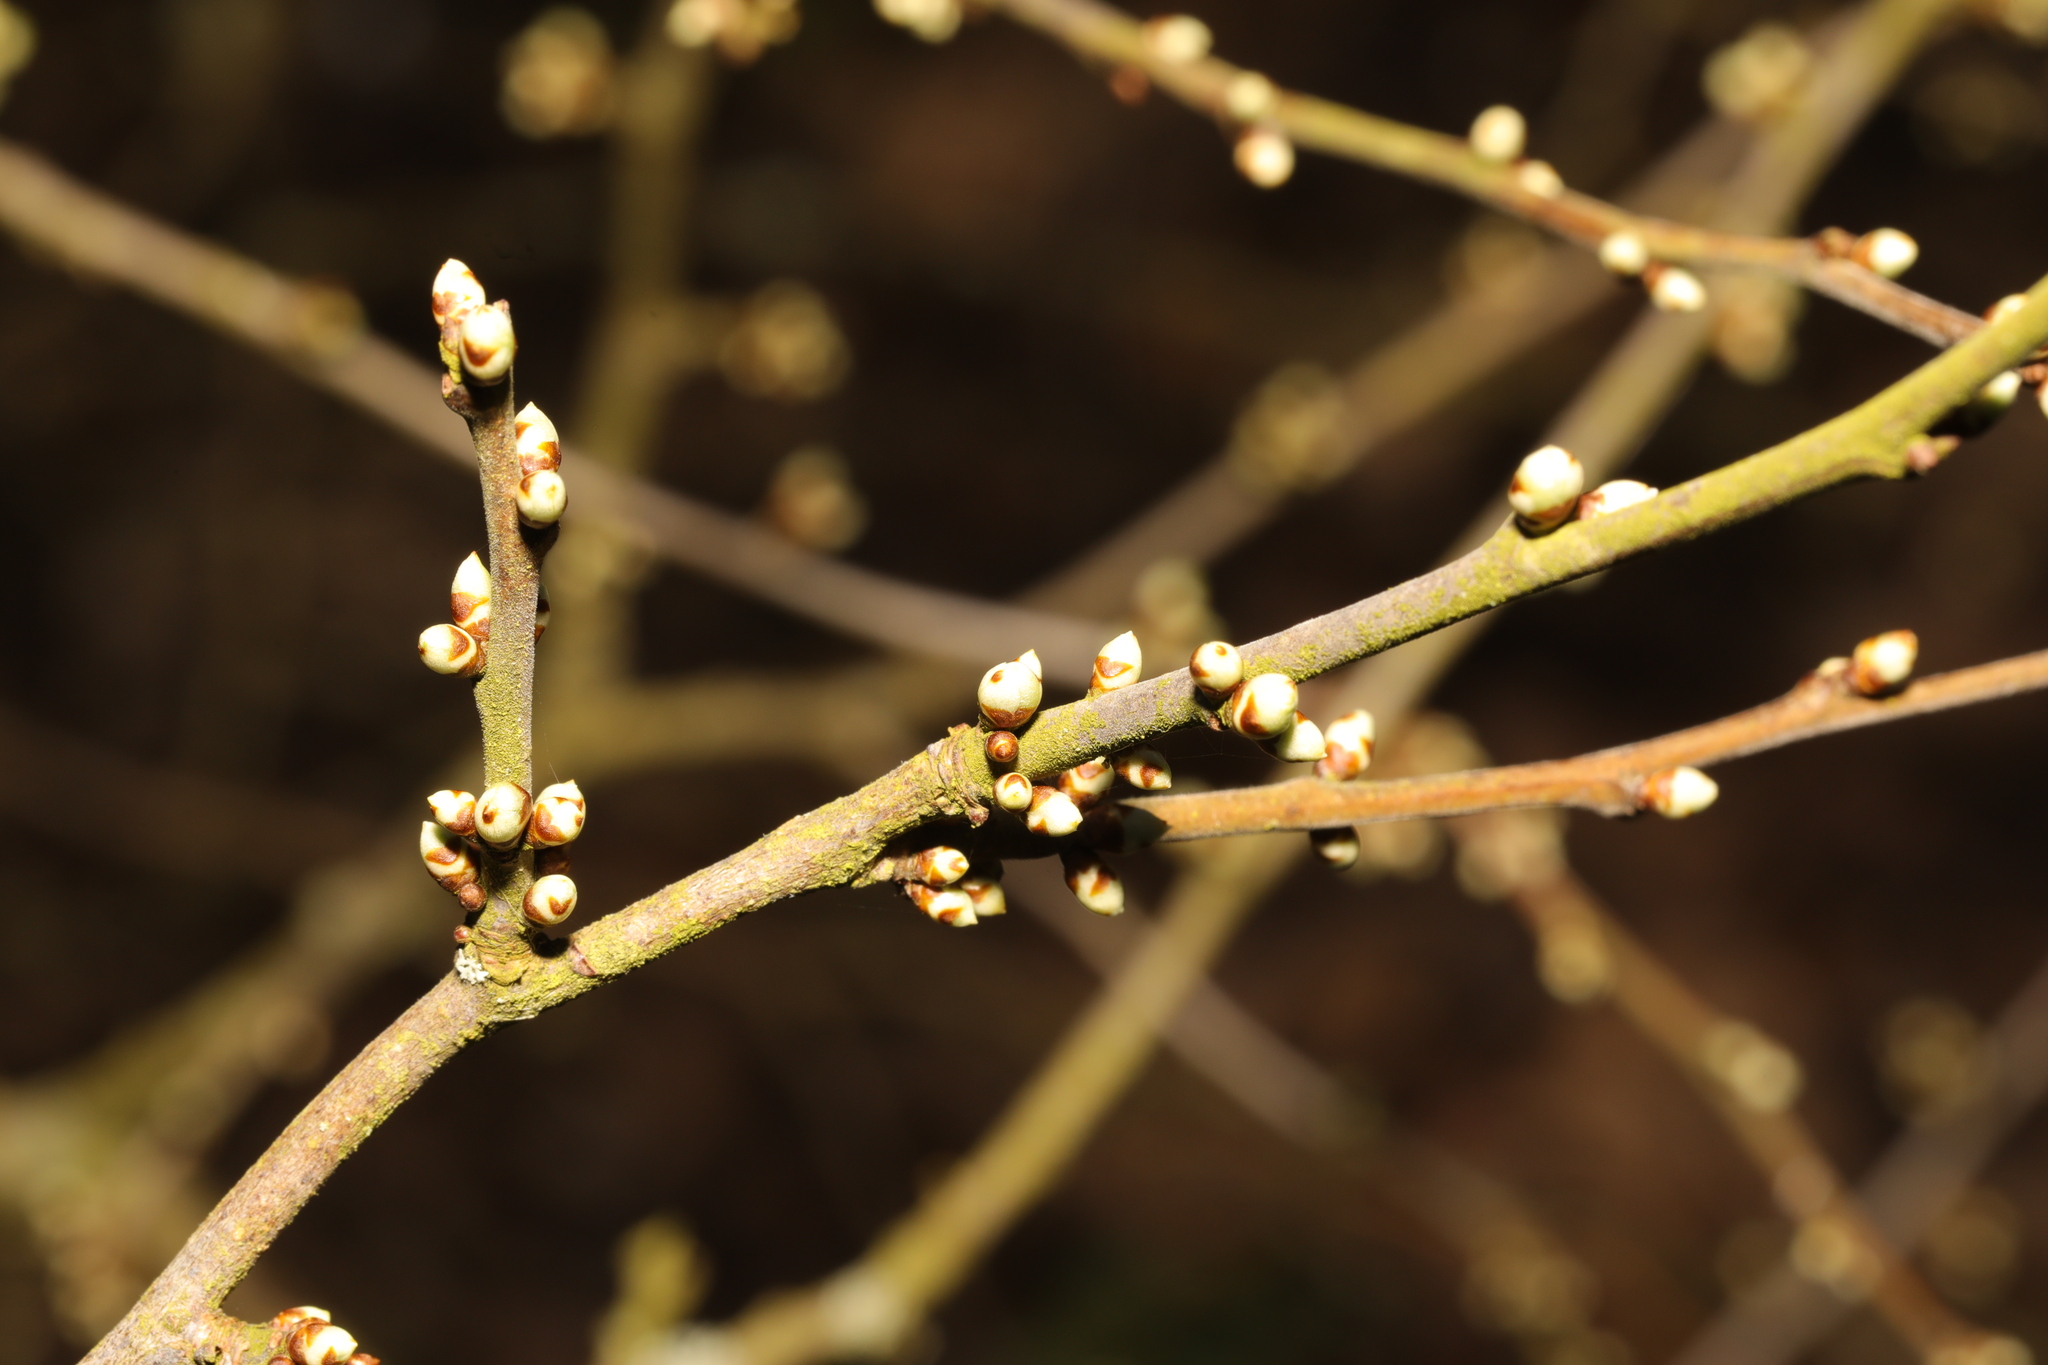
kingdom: Plantae
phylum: Tracheophyta
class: Magnoliopsida
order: Rosales
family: Rosaceae
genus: Prunus
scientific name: Prunus spinosa
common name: Blackthorn
